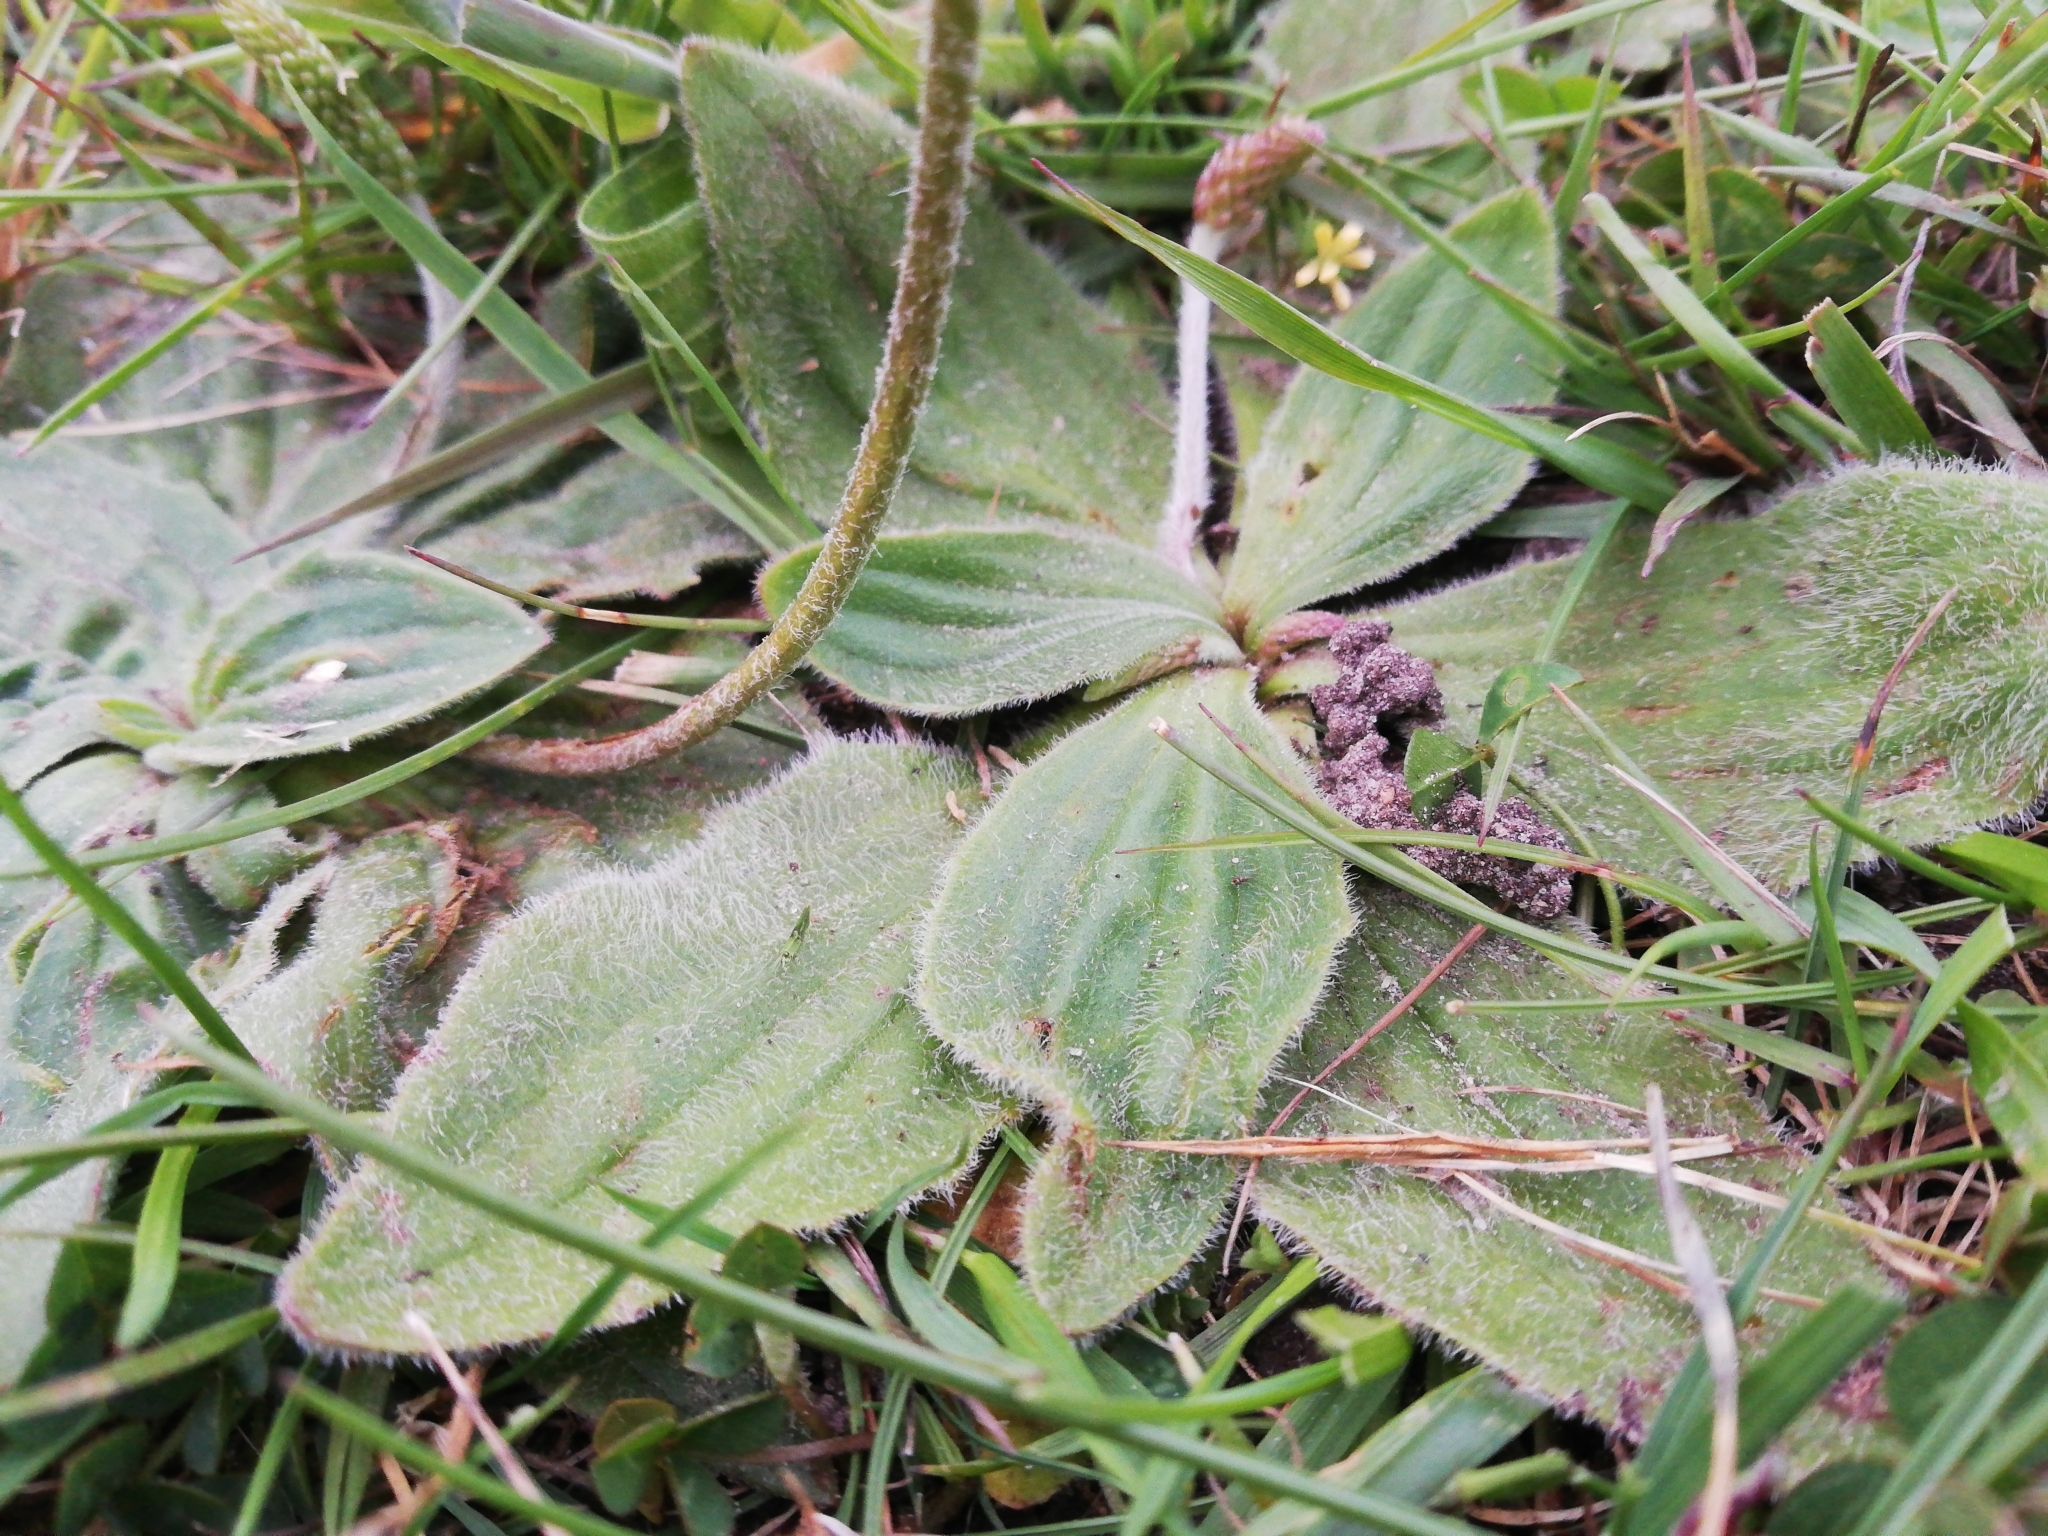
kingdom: Plantae
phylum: Tracheophyta
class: Magnoliopsida
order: Lamiales
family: Plantaginaceae
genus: Plantago
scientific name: Plantago media
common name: Hoary plantain
